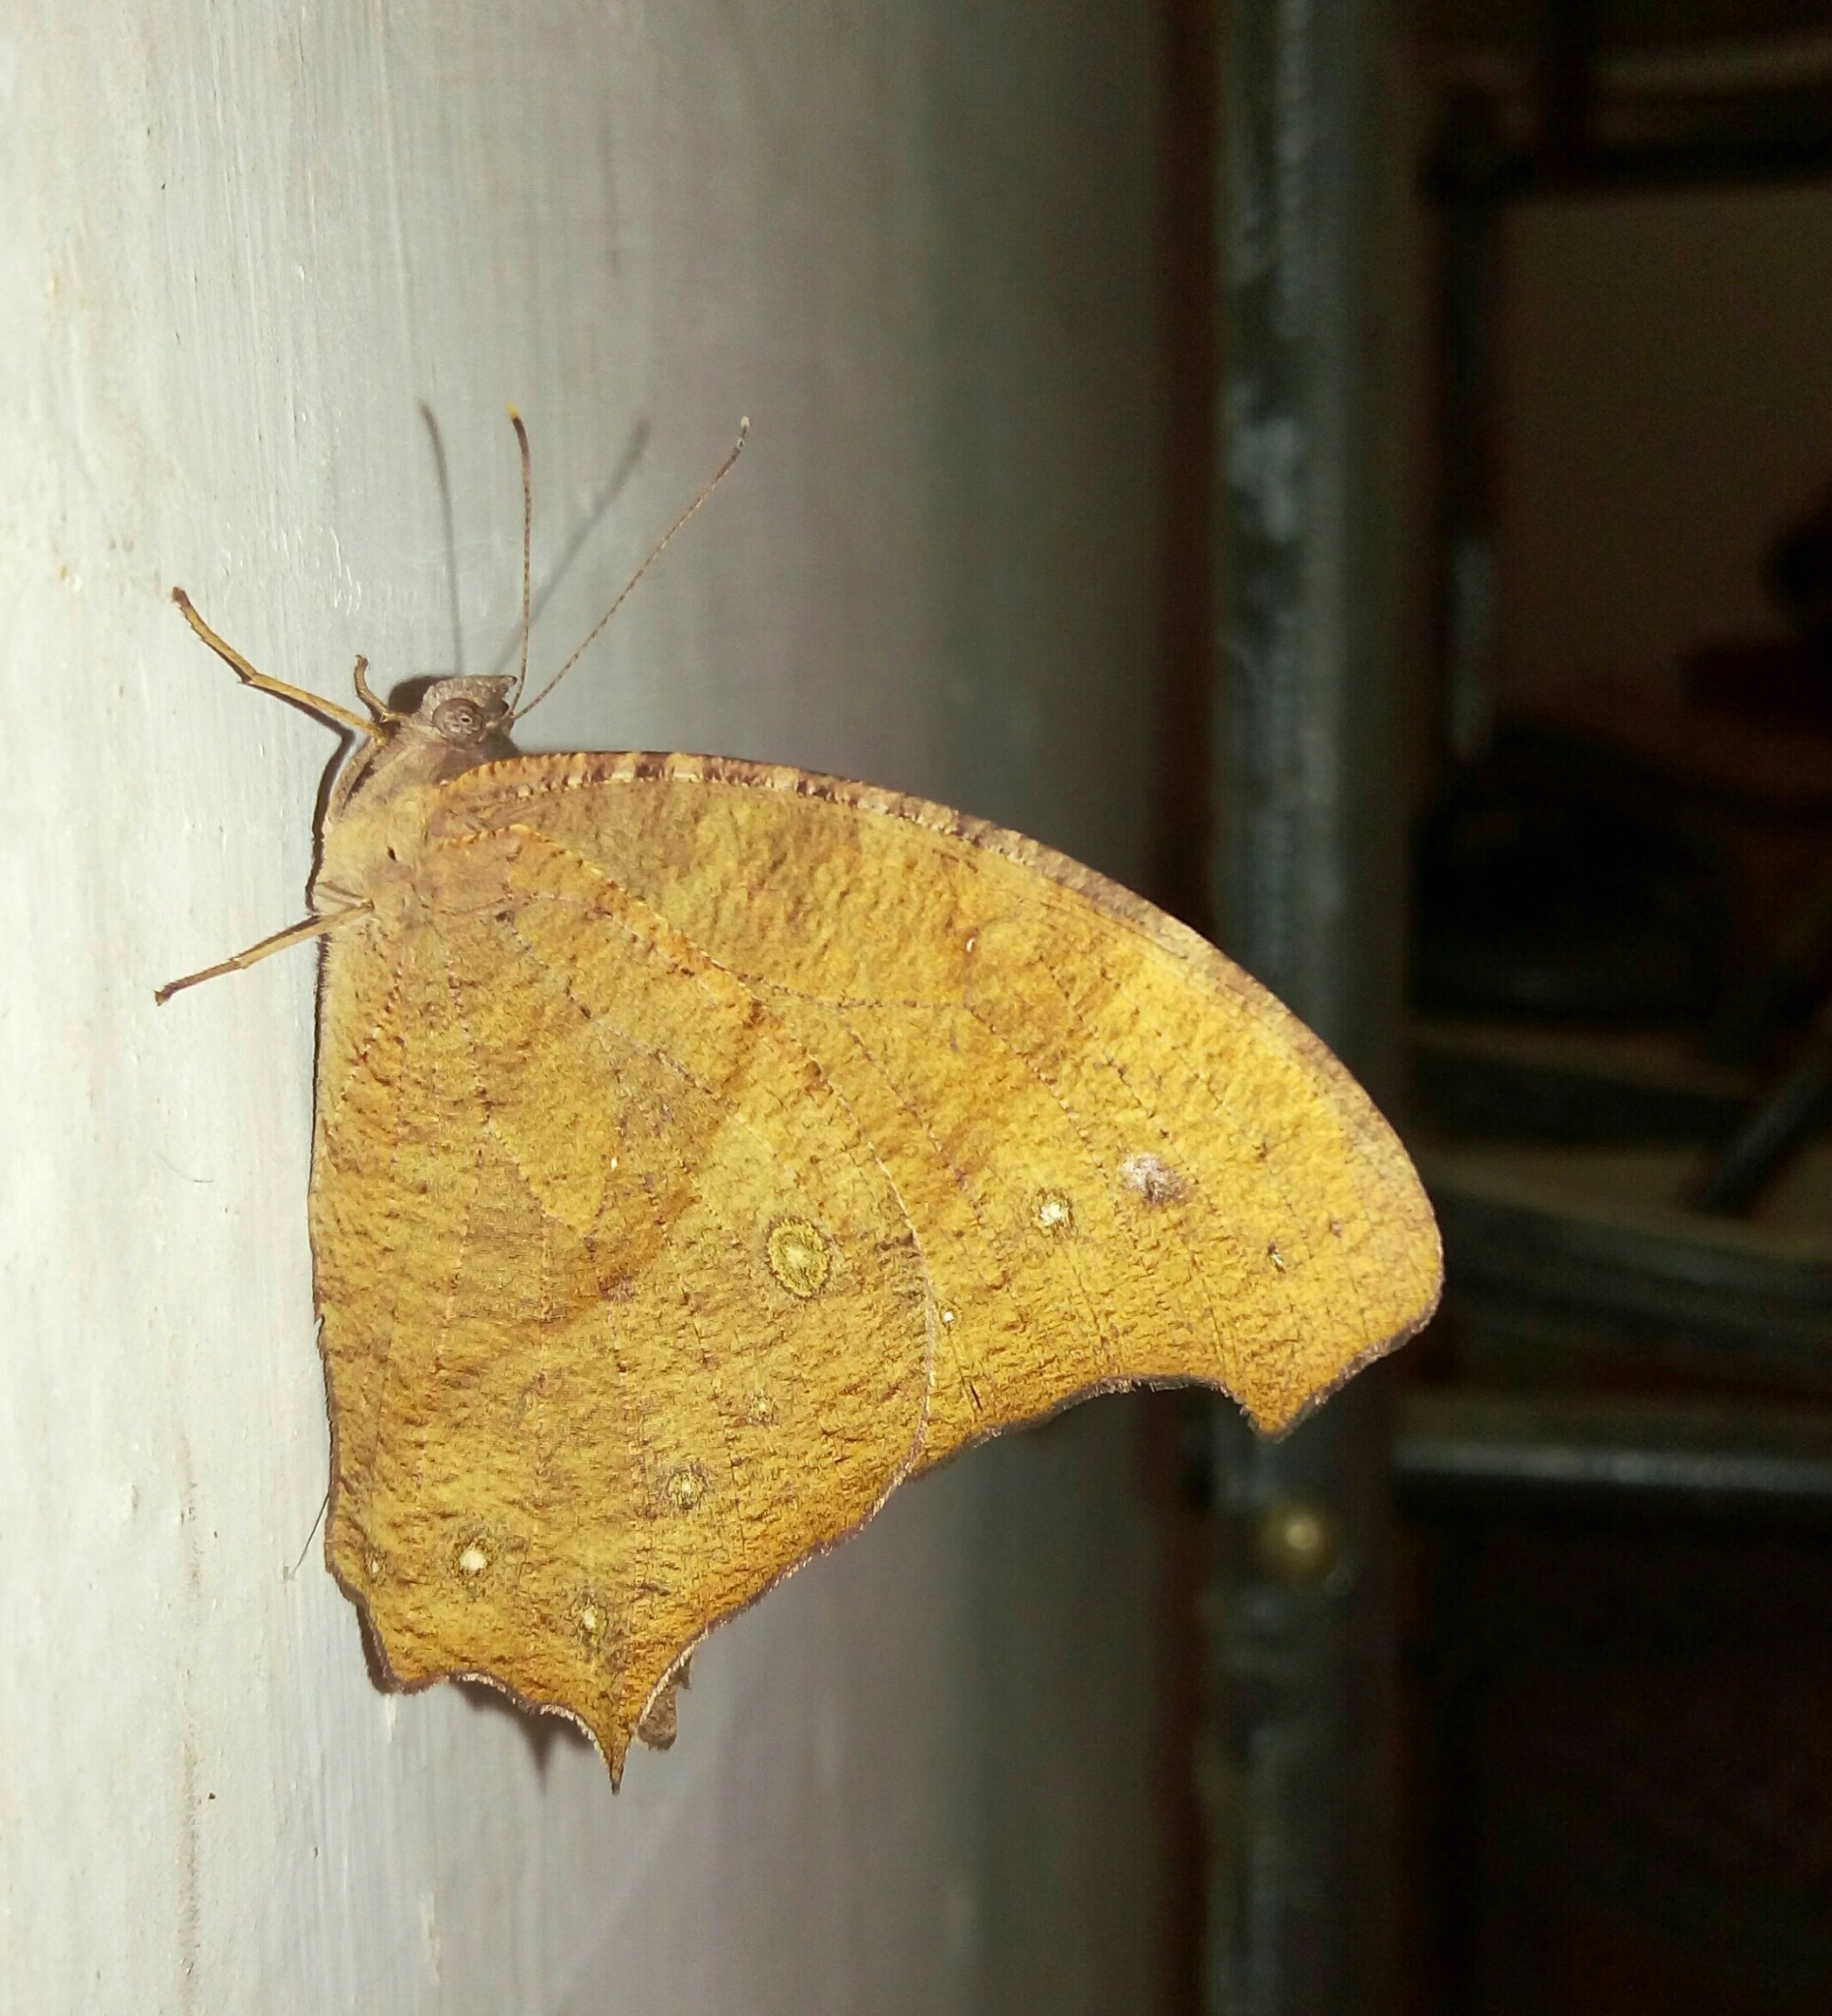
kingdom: Animalia
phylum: Arthropoda
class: Insecta
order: Lepidoptera
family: Nymphalidae
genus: Melanitis
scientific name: Melanitis leda
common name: Twilight brown
